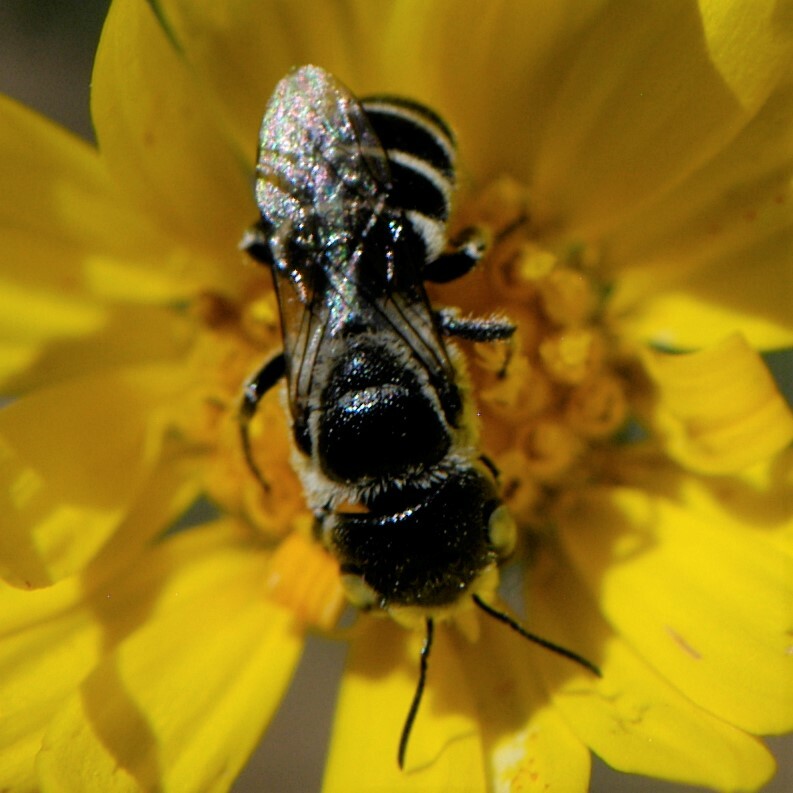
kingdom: Animalia
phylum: Arthropoda
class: Insecta
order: Hymenoptera
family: Megachilidae
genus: Ashmeadiella
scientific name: Ashmeadiella
